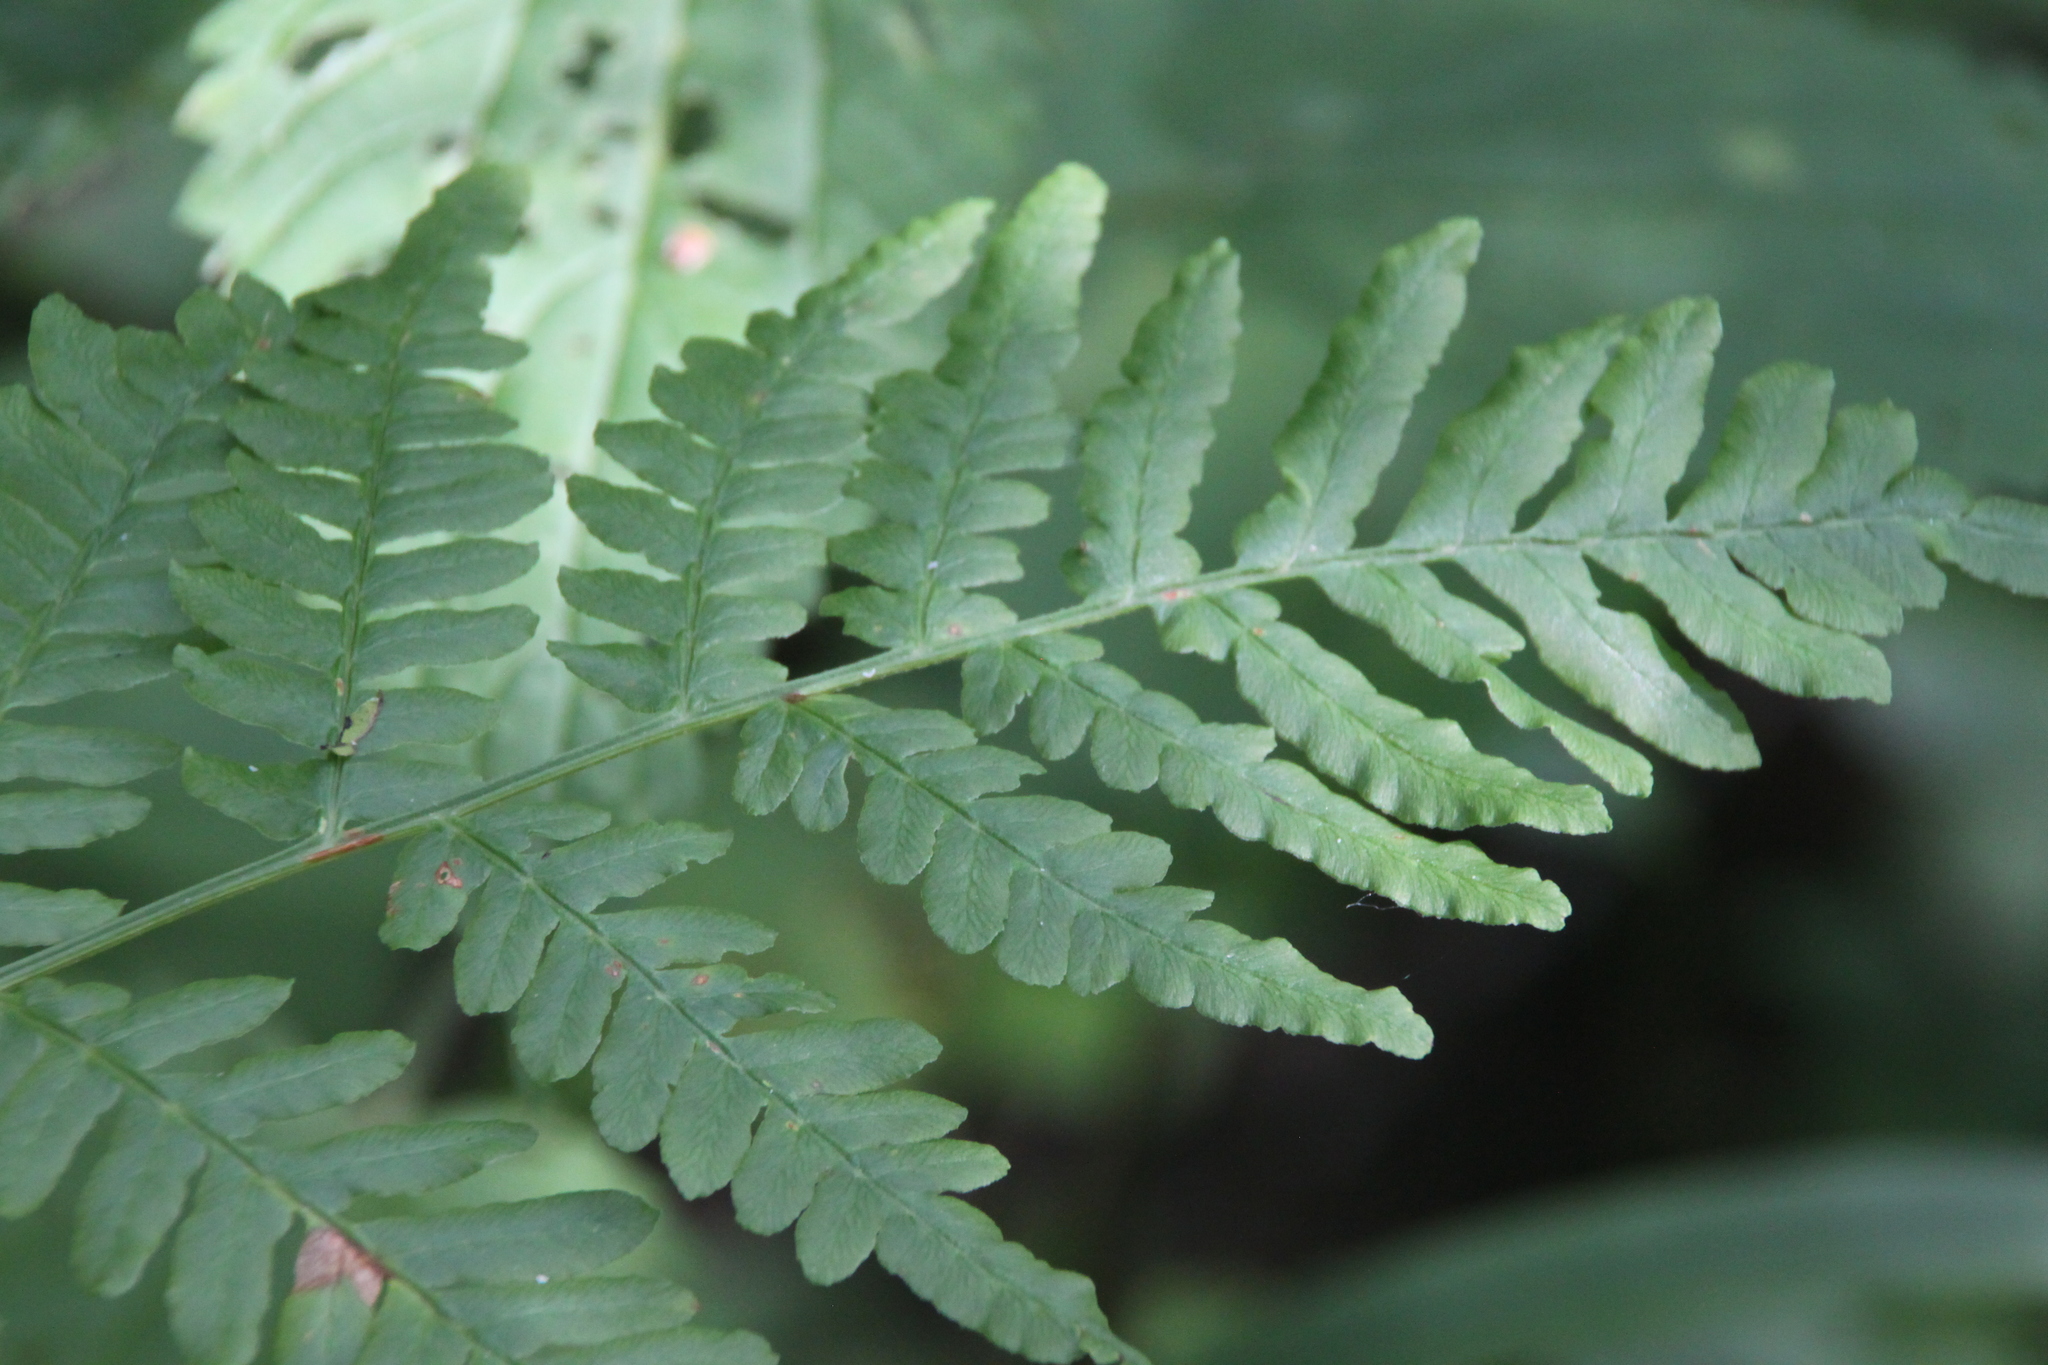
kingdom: Plantae
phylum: Tracheophyta
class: Polypodiopsida
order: Polypodiales
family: Dennstaedtiaceae
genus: Pteridium
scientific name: Pteridium aquilinum
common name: Bracken
